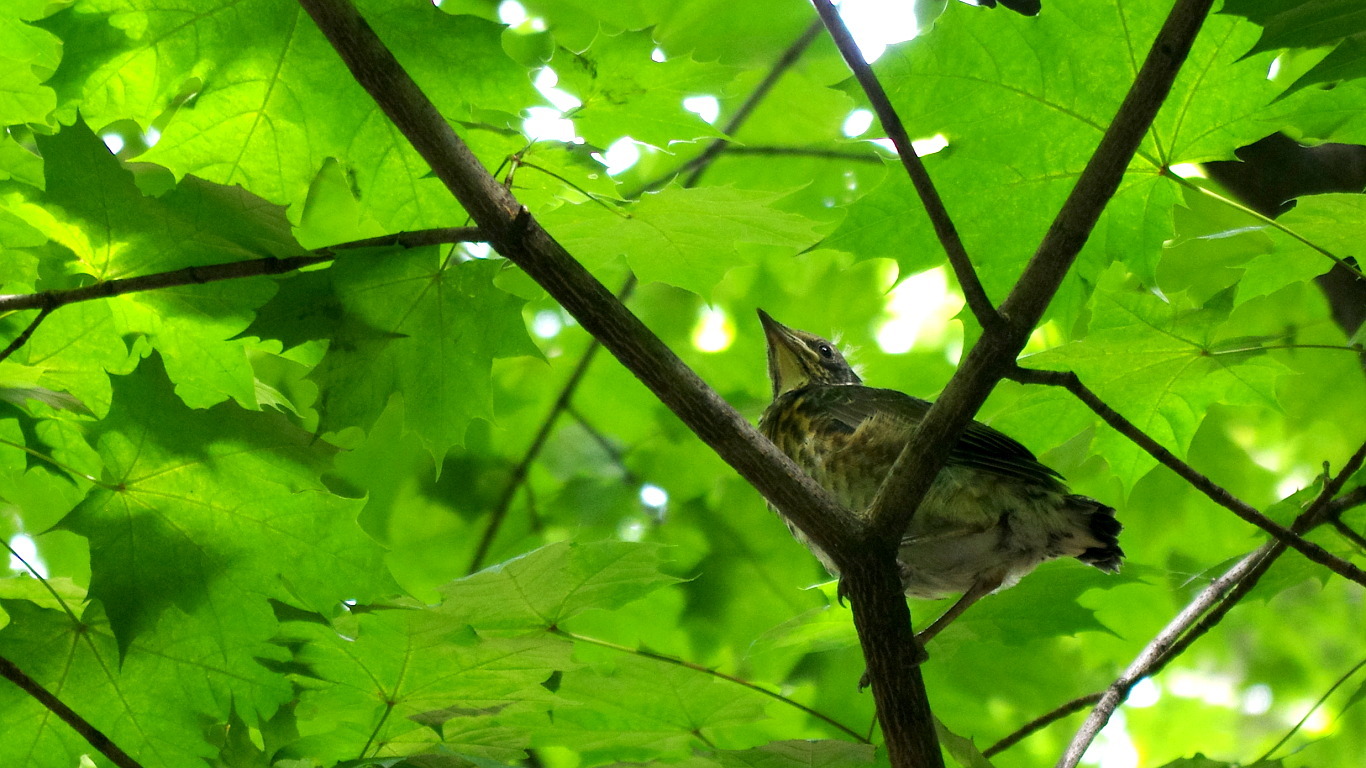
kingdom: Animalia
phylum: Chordata
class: Aves
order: Passeriformes
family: Turdidae
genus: Turdus
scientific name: Turdus pilaris
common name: Fieldfare
